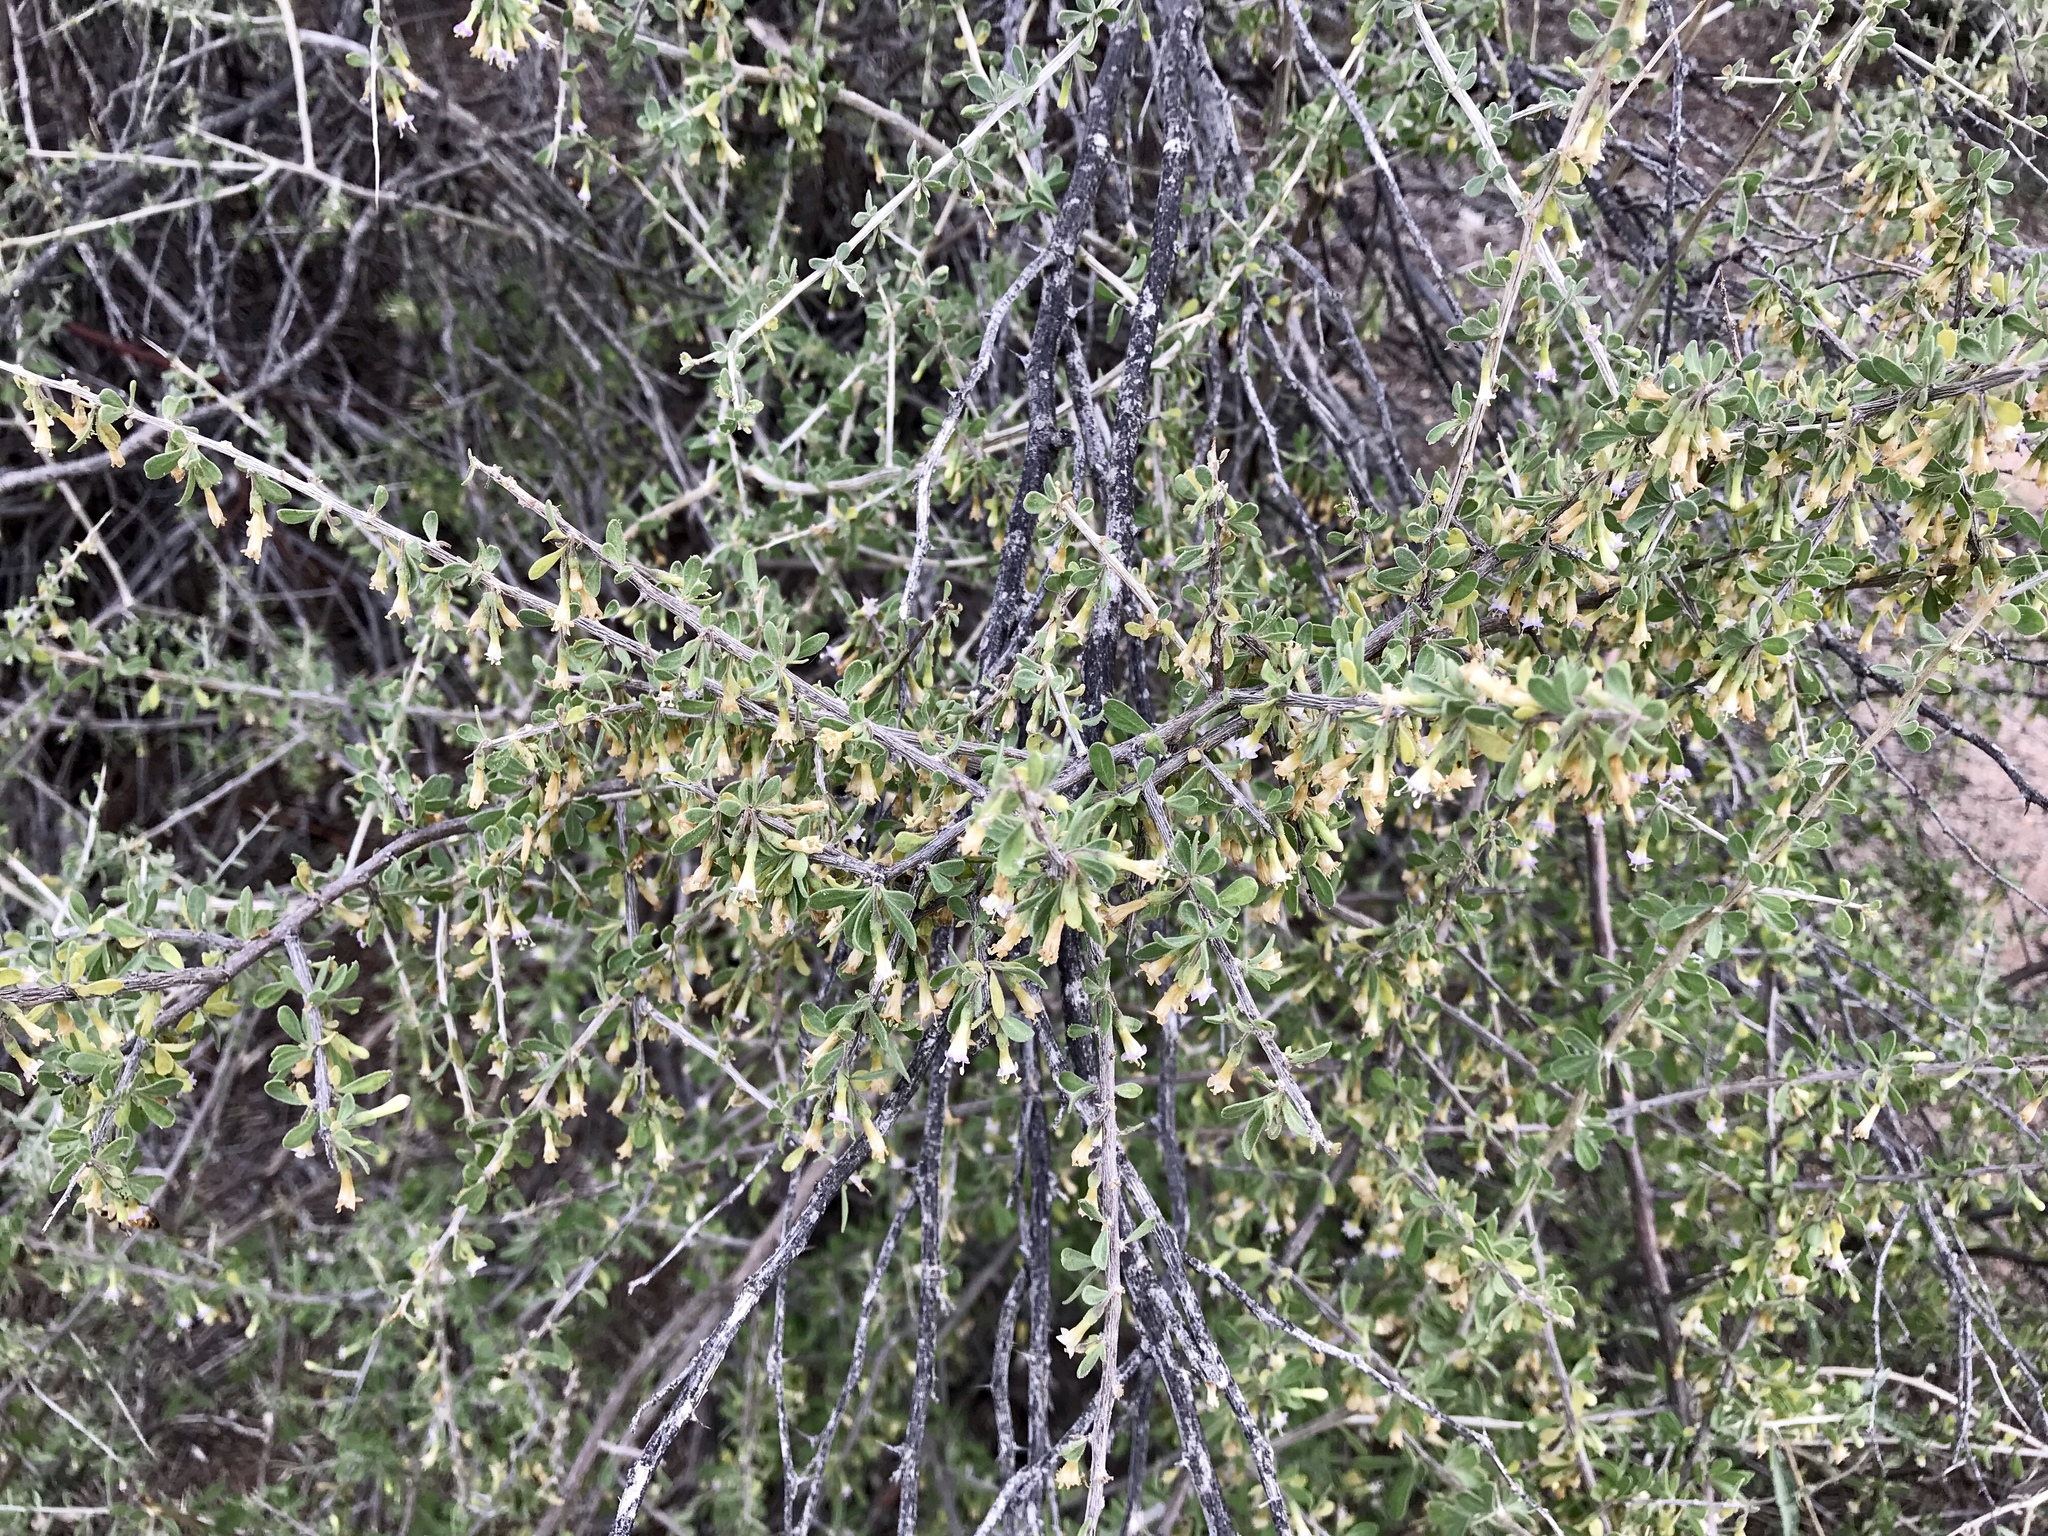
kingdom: Plantae
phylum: Tracheophyta
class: Magnoliopsida
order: Solanales
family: Solanaceae
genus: Lycium
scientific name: Lycium exsertum
